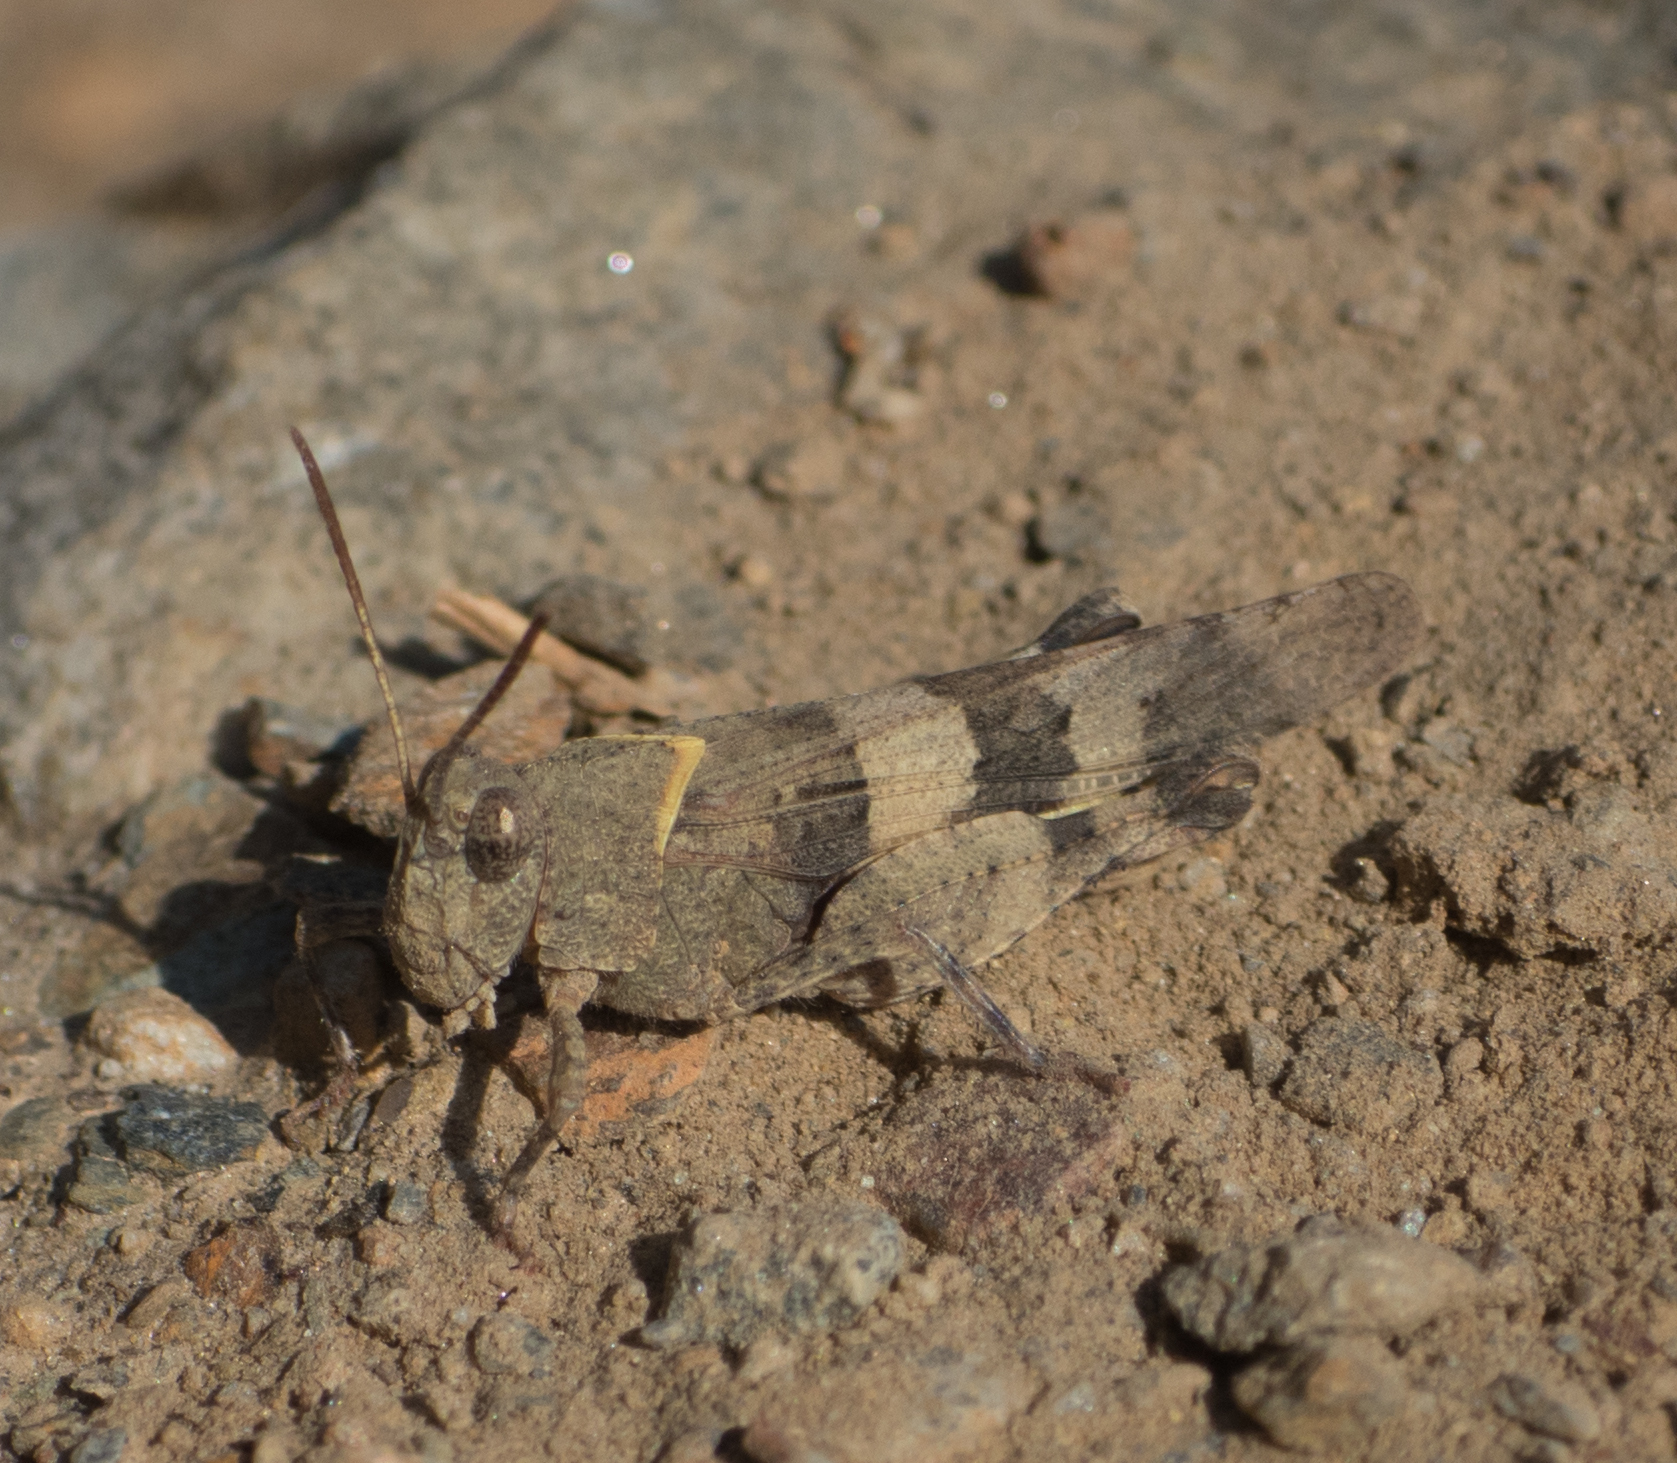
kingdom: Animalia
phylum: Arthropoda
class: Insecta
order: Orthoptera
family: Acrididae
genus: Oedipoda
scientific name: Oedipoda caerulescens
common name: Blue-winged grasshopper
